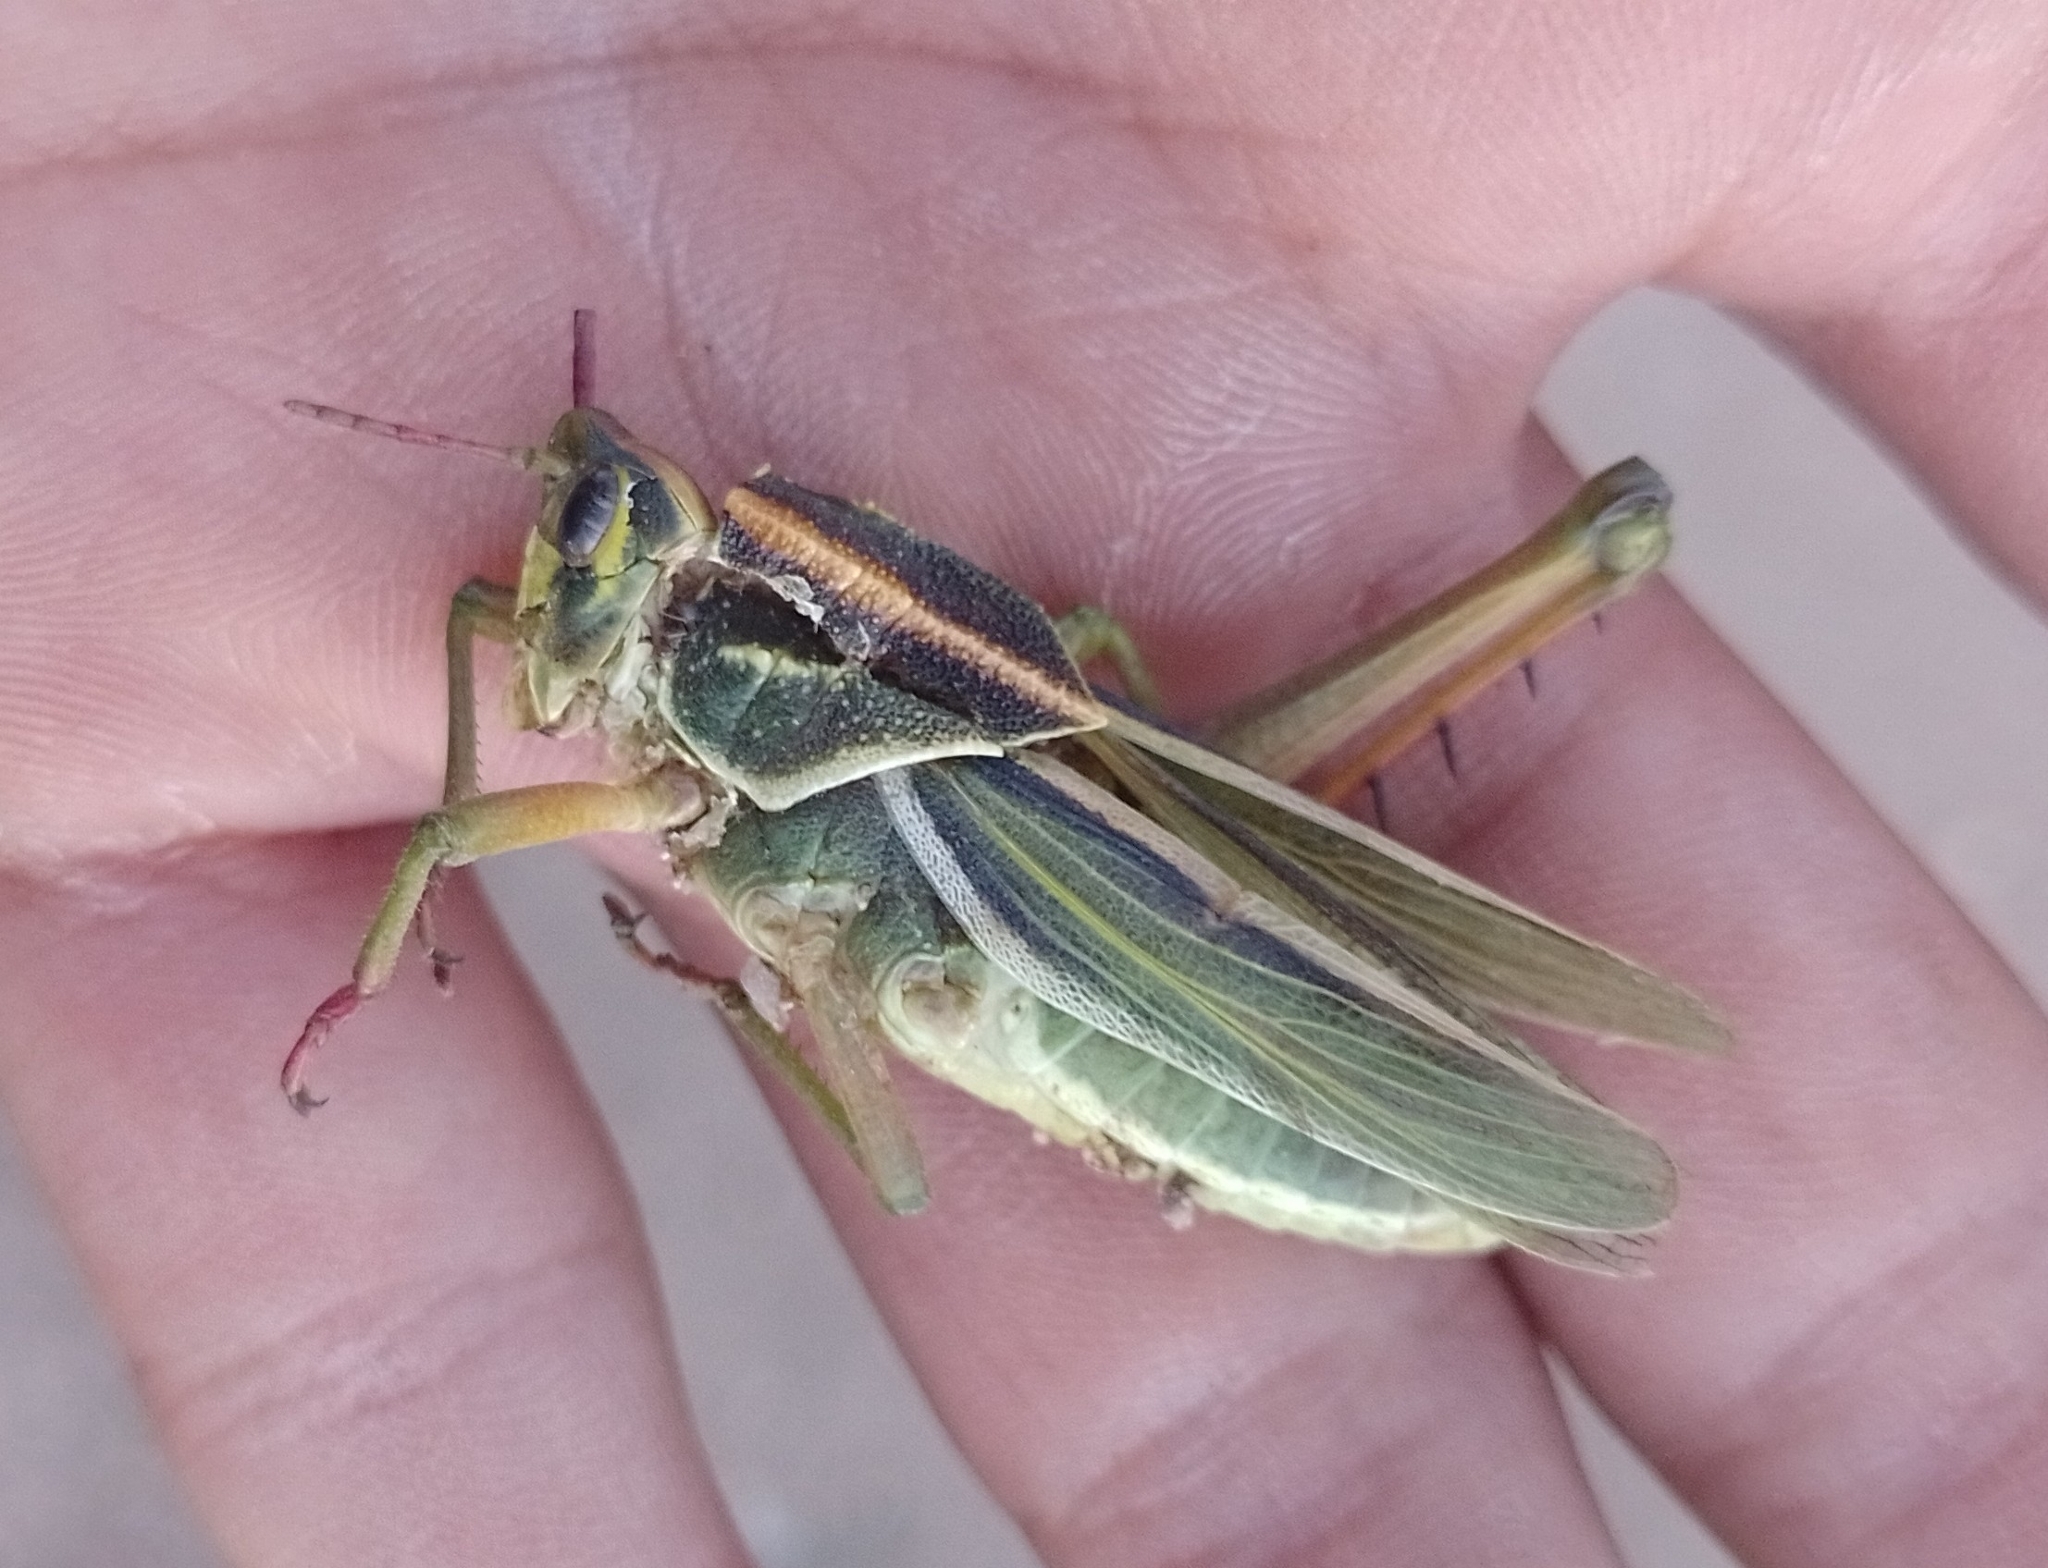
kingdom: Animalia
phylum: Arthropoda
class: Insecta
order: Orthoptera
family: Romaleidae
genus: Staleochlora
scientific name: Staleochlora viridicata
